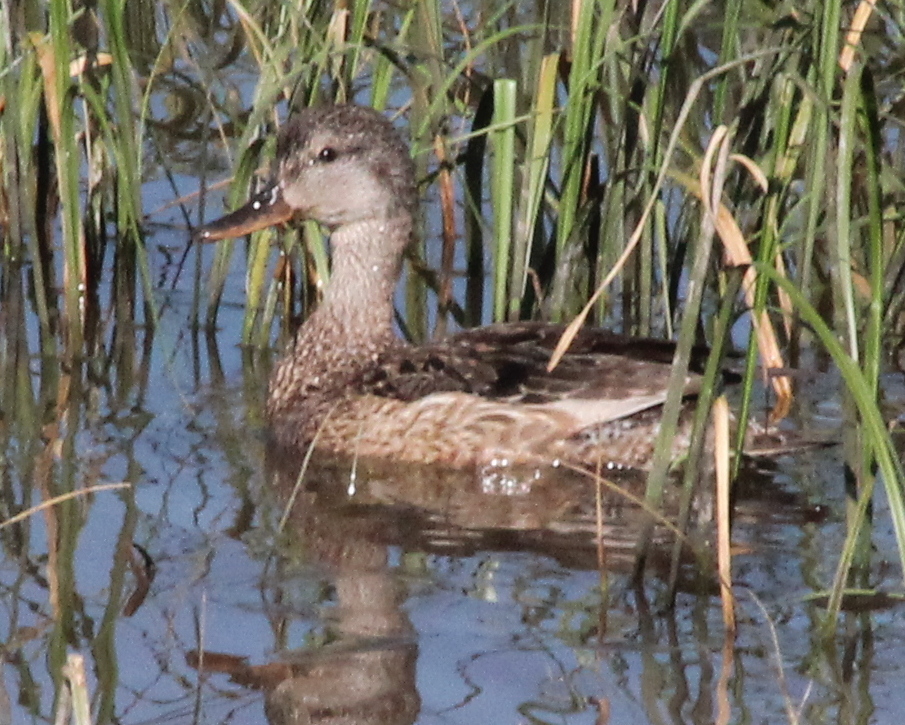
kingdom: Animalia
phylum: Chordata
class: Aves
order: Anseriformes
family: Anatidae
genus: Mareca
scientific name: Mareca strepera
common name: Gadwall
